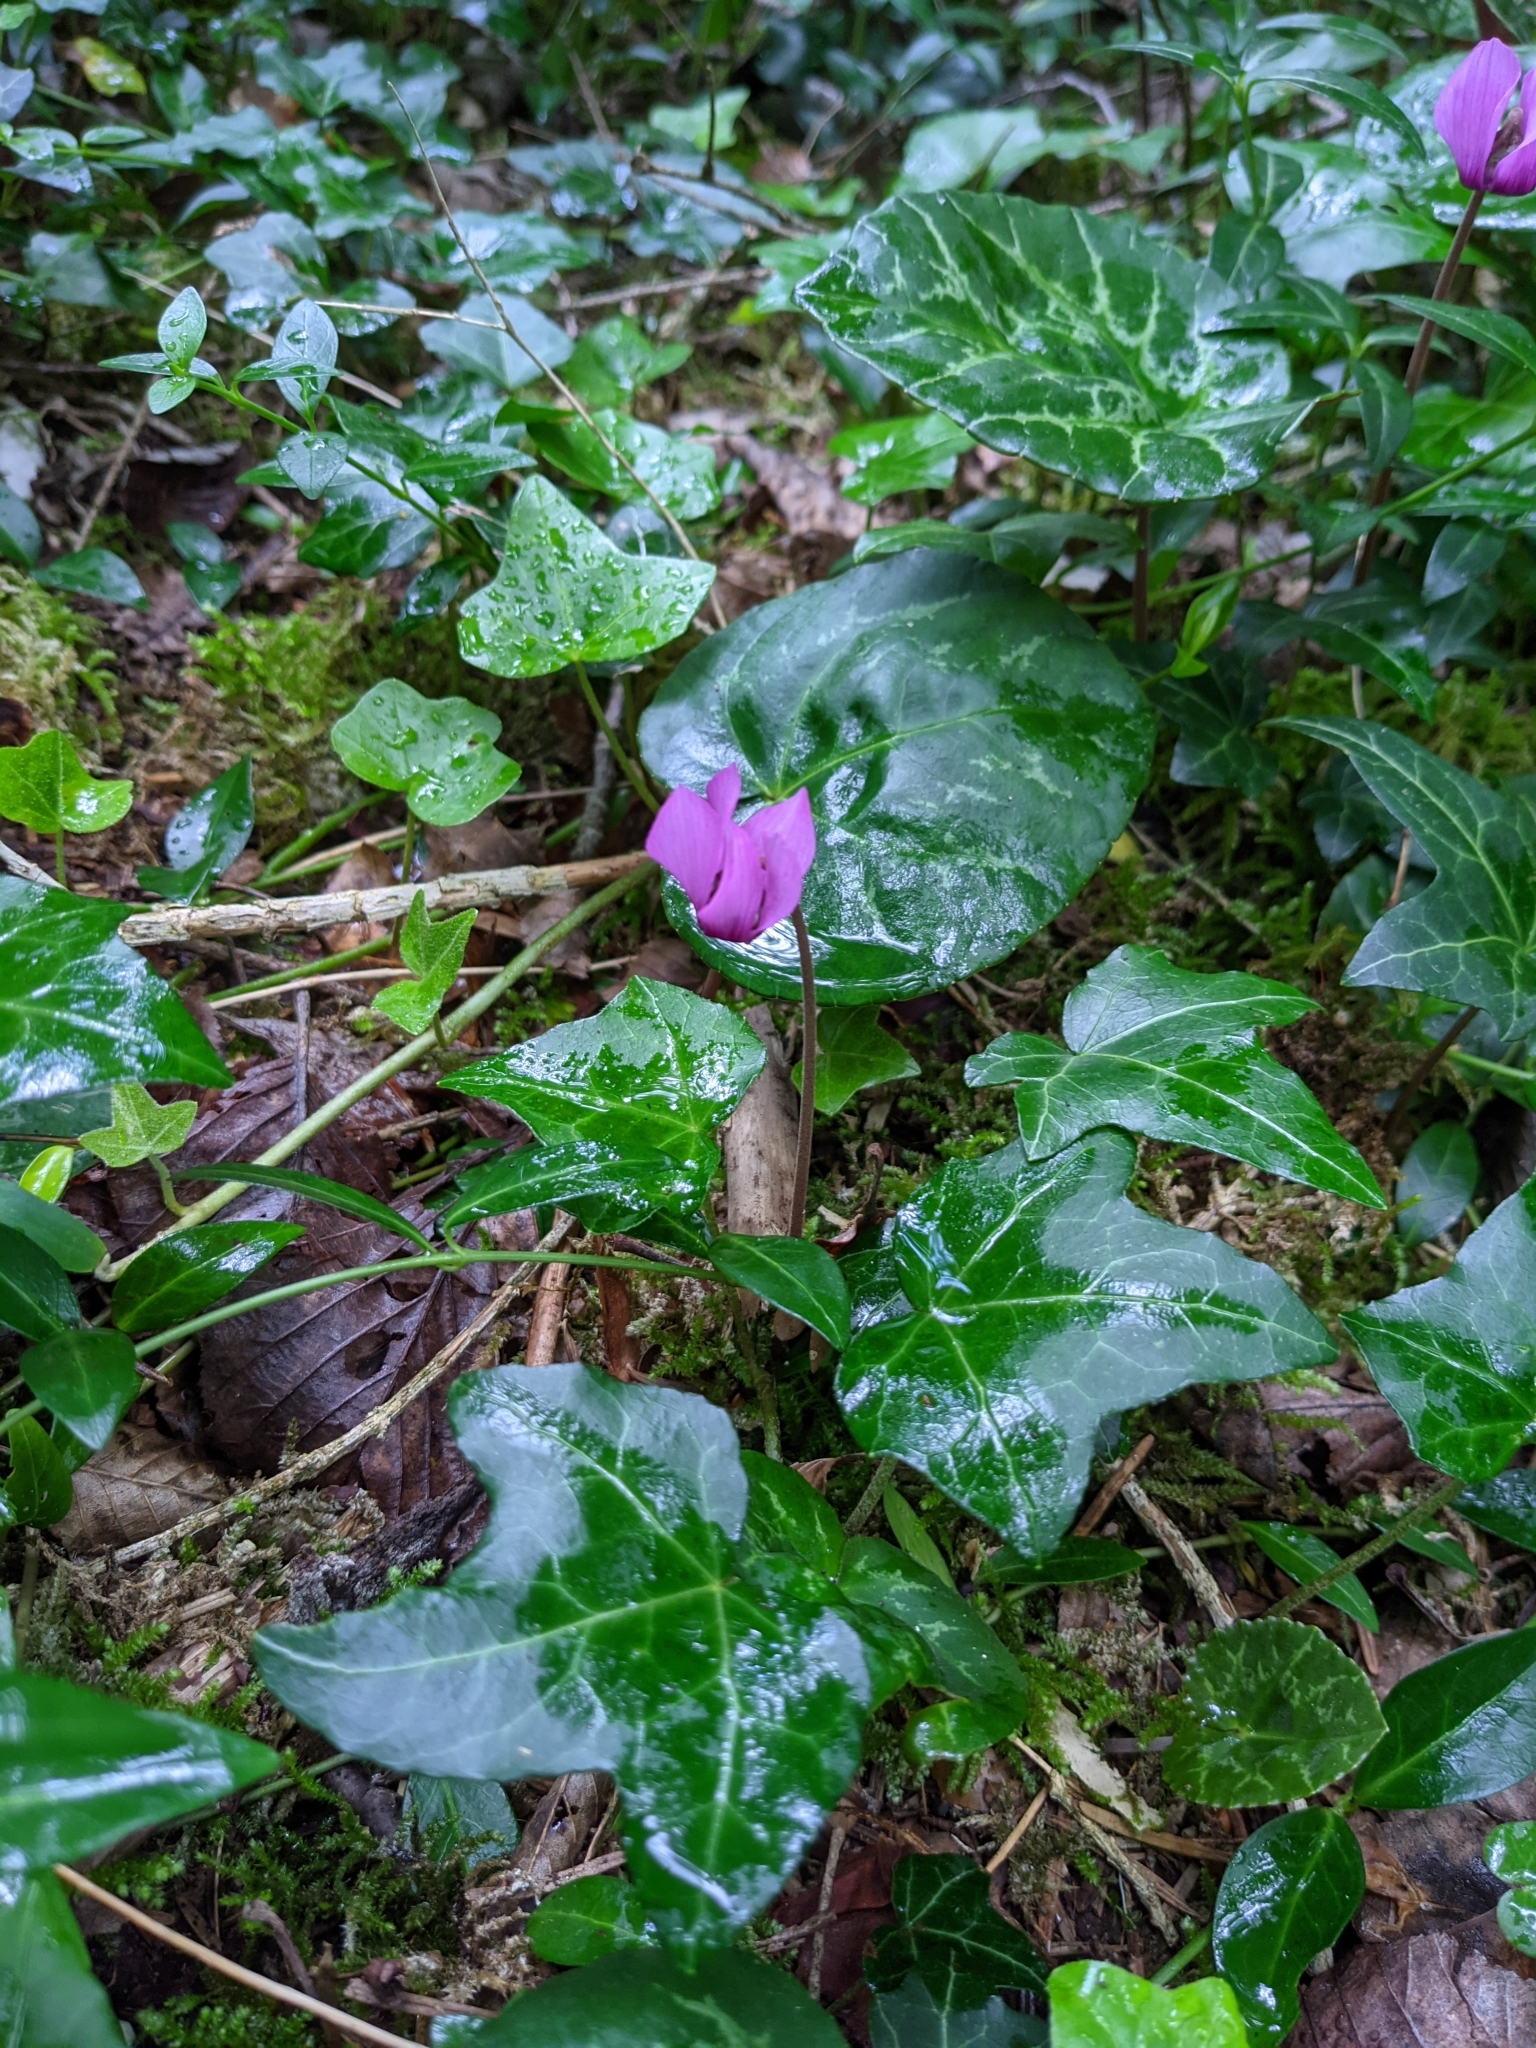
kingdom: Plantae
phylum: Tracheophyta
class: Magnoliopsida
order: Ericales
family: Primulaceae
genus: Cyclamen
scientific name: Cyclamen purpurascens
